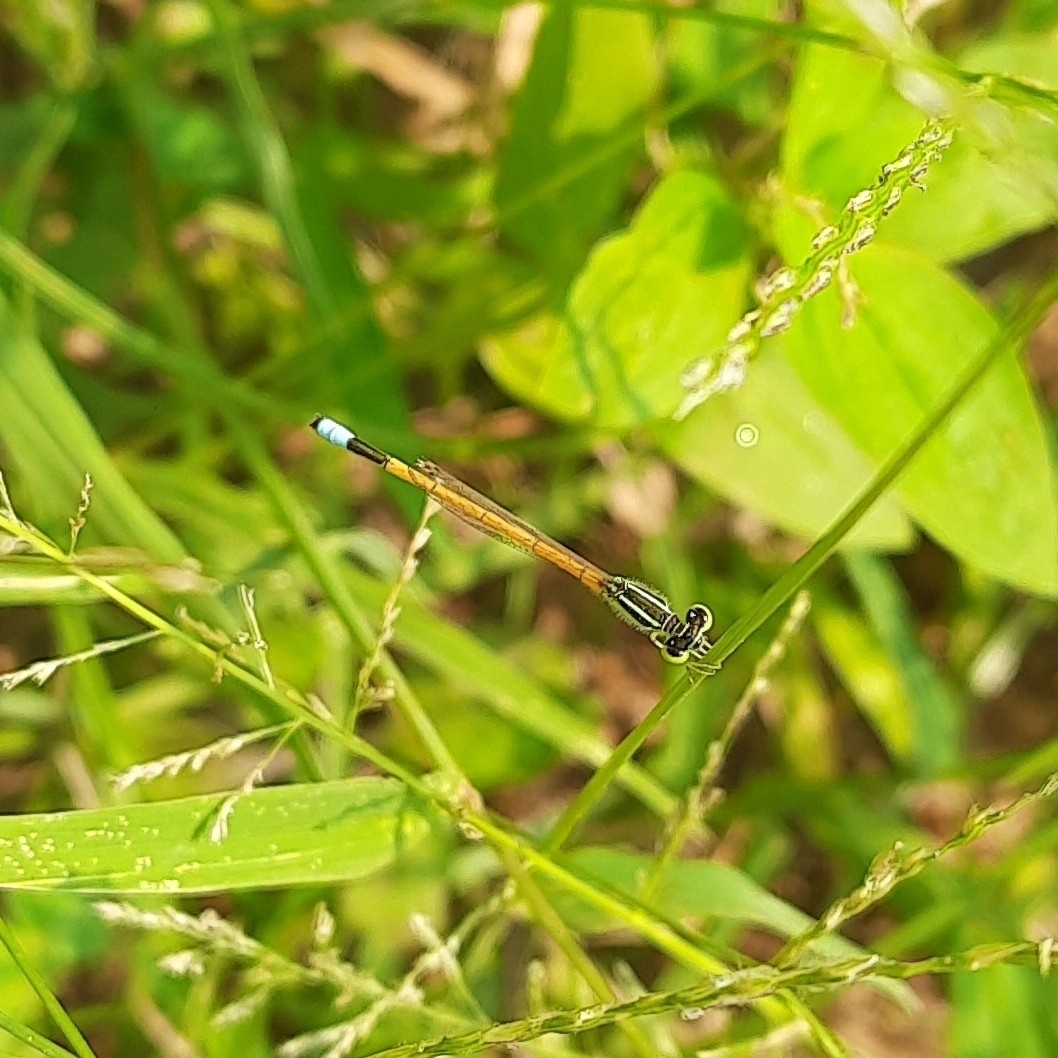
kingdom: Animalia
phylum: Arthropoda
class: Insecta
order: Odonata
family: Coenagrionidae
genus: Ischnura
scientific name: Ischnura rubilio
